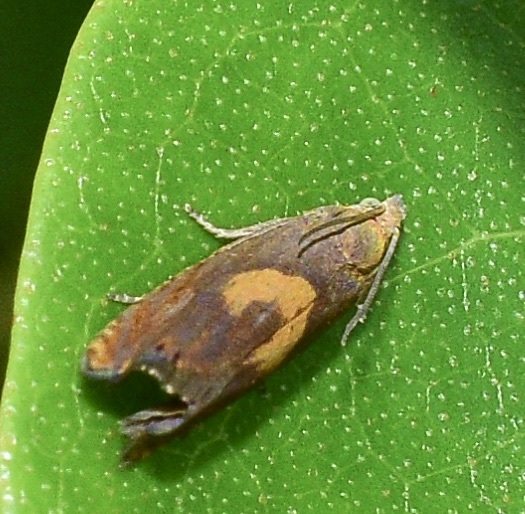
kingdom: Animalia
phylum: Arthropoda
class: Insecta
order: Lepidoptera
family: Tortricidae
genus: Dichrorampha
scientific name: Dichrorampha simulana
